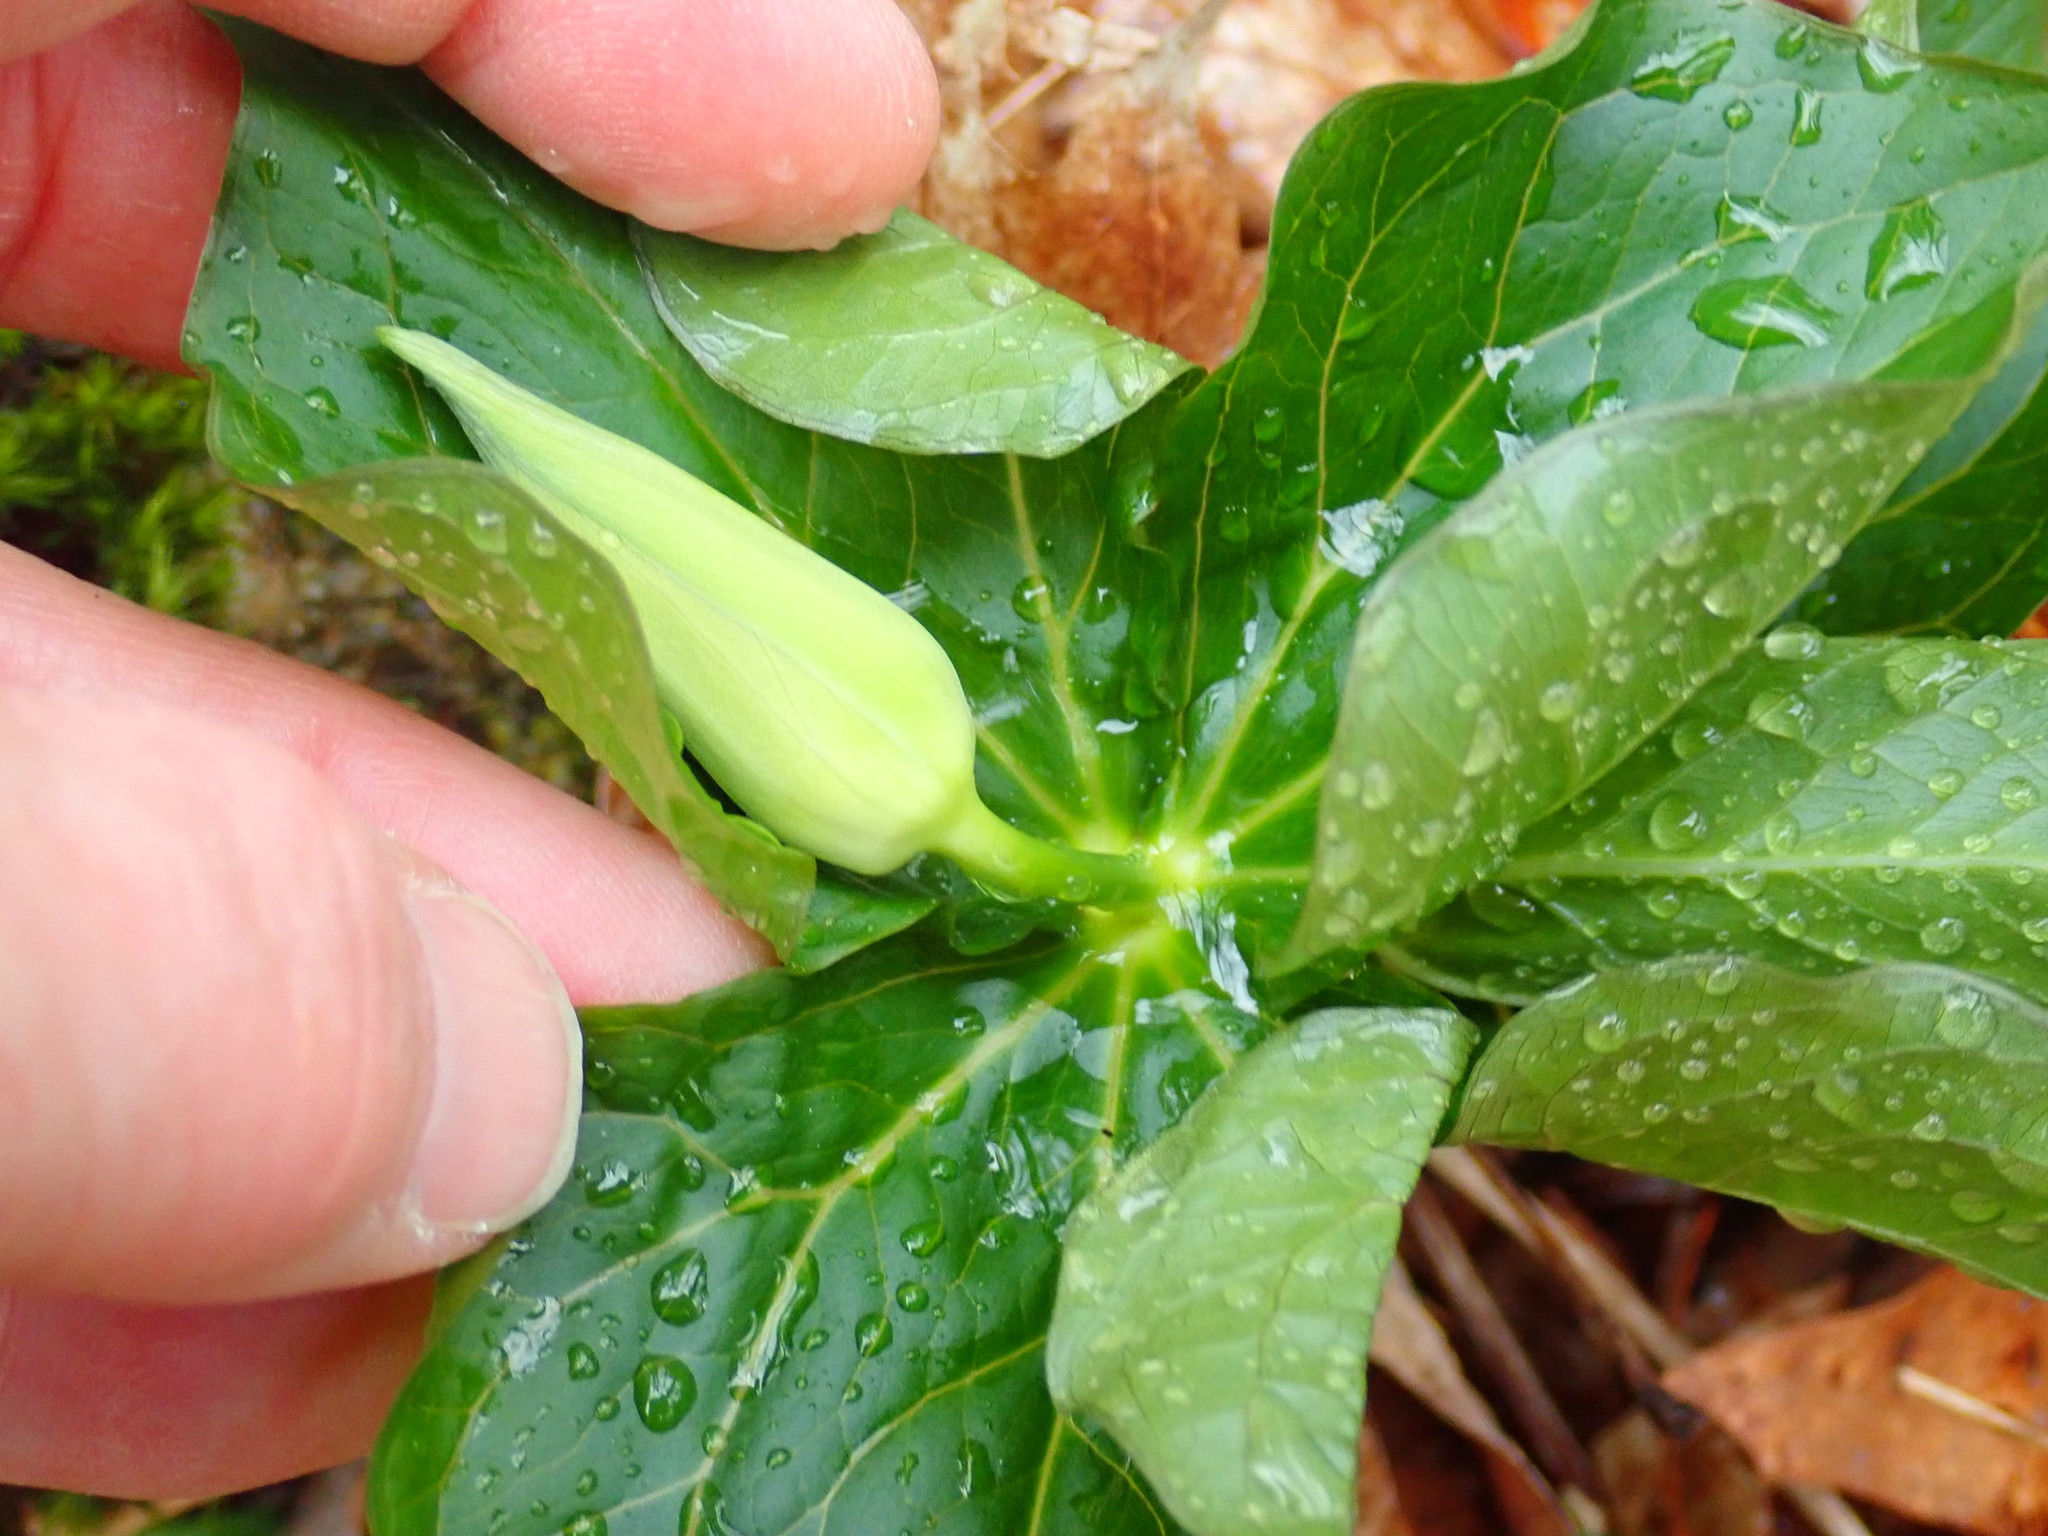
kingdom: Plantae
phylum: Tracheophyta
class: Liliopsida
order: Liliales
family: Melanthiaceae
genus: Trillium
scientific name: Trillium erectum
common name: Purple trillium
